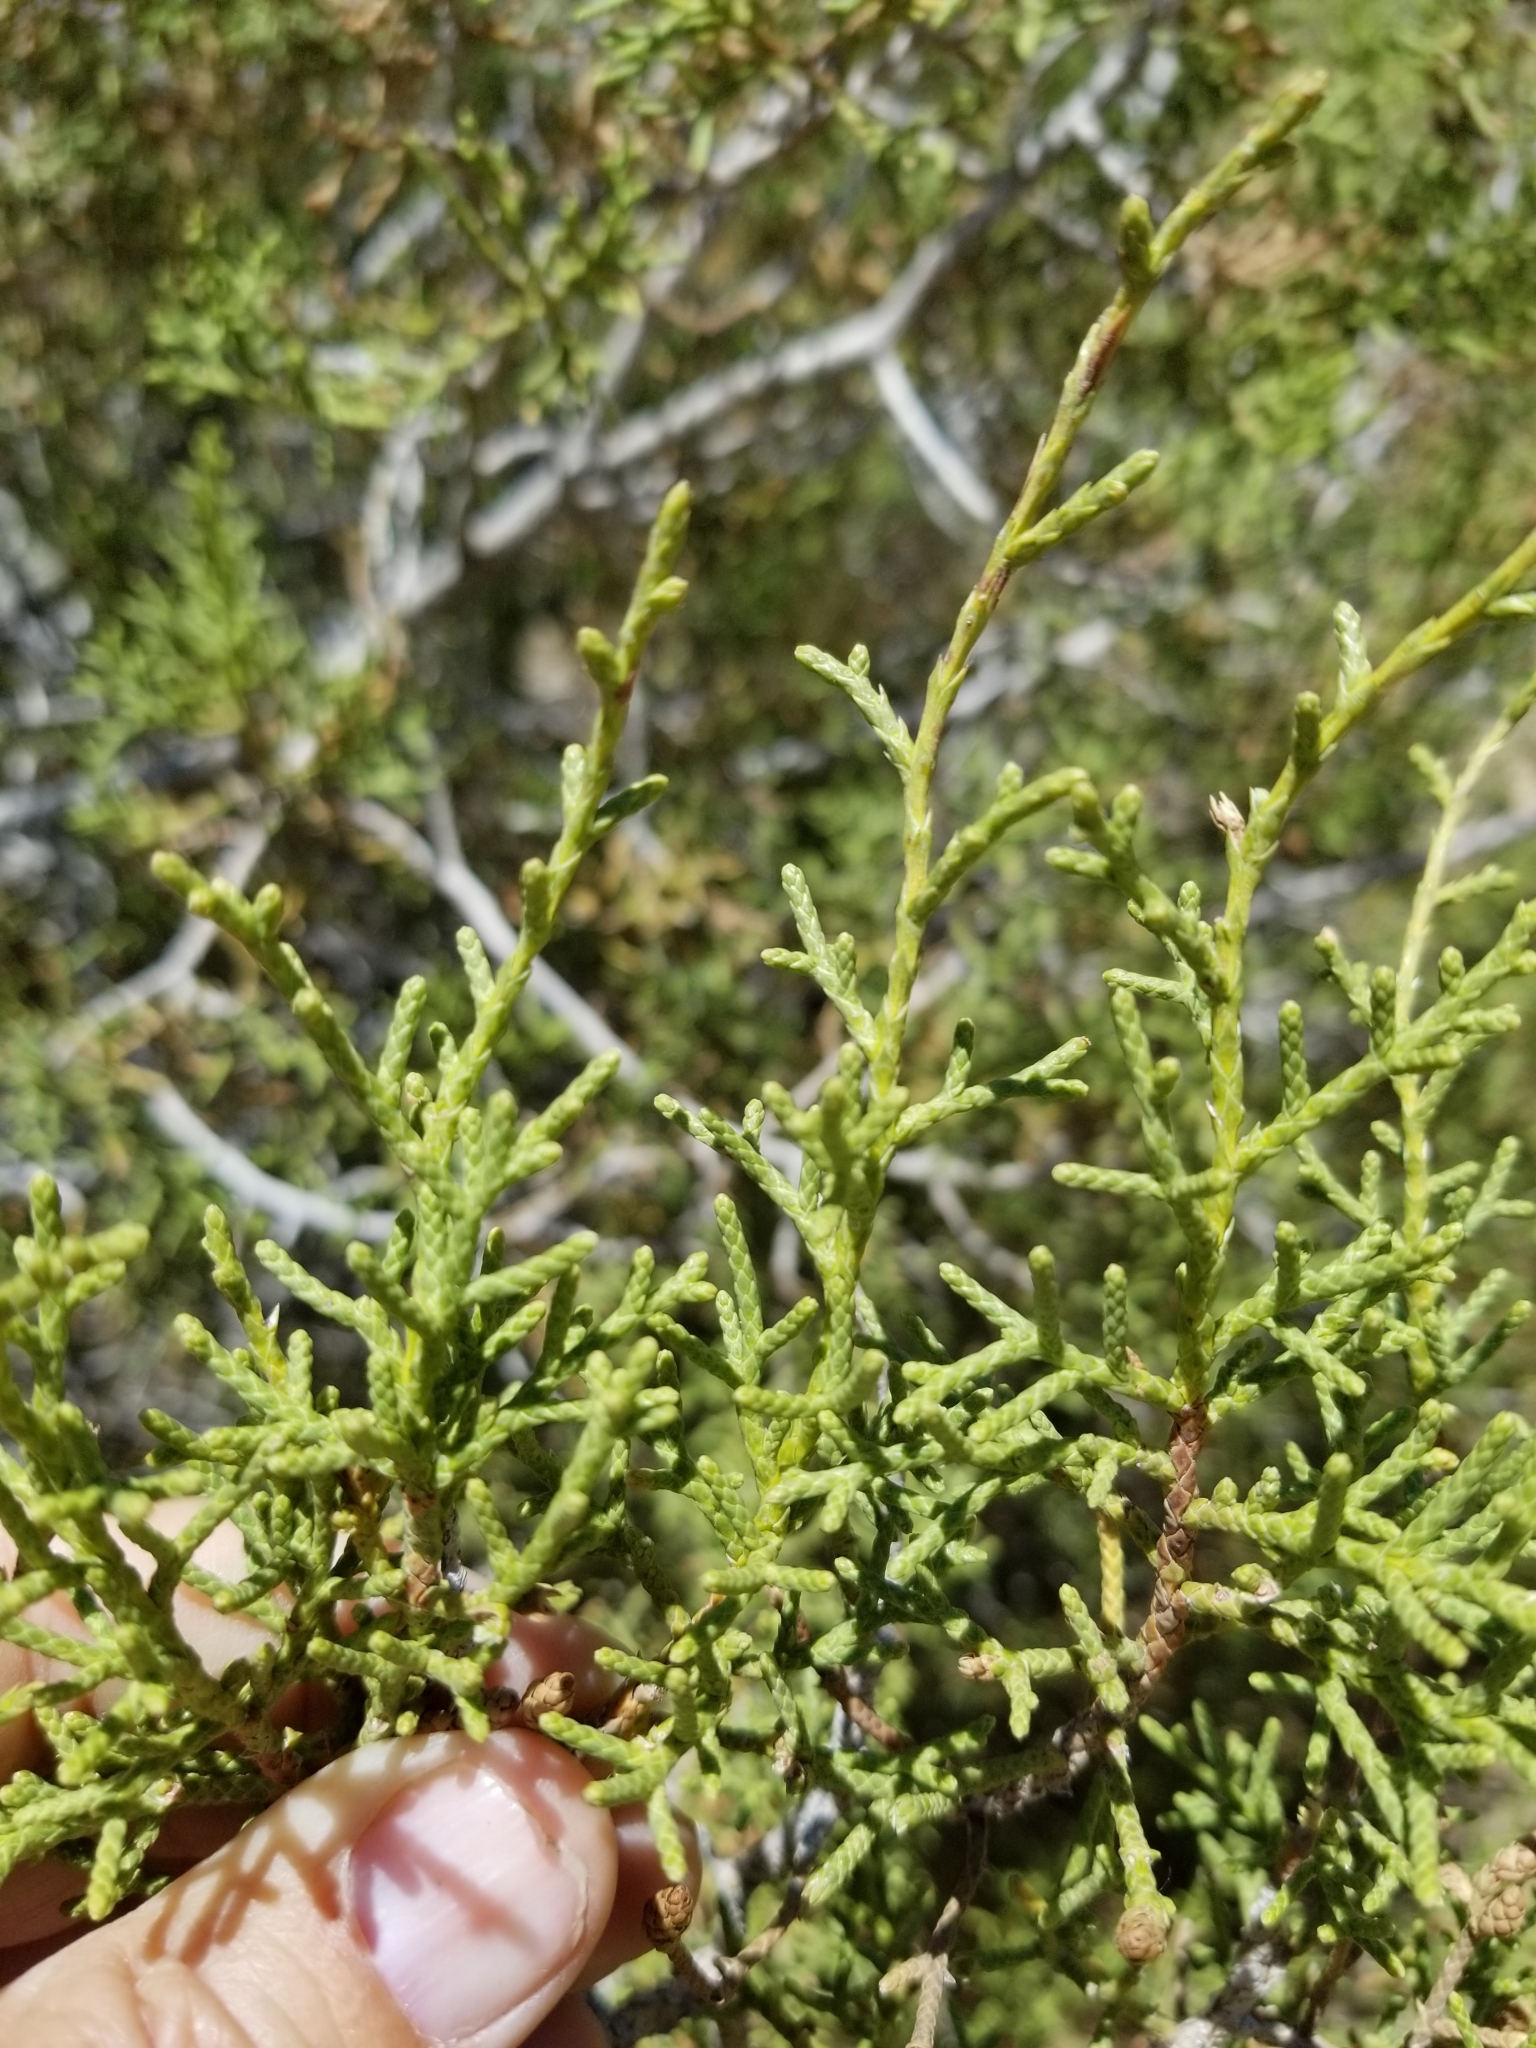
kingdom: Plantae
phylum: Tracheophyta
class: Pinopsida
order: Pinales
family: Cupressaceae
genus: Juniperus
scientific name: Juniperus californica
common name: California juniper
